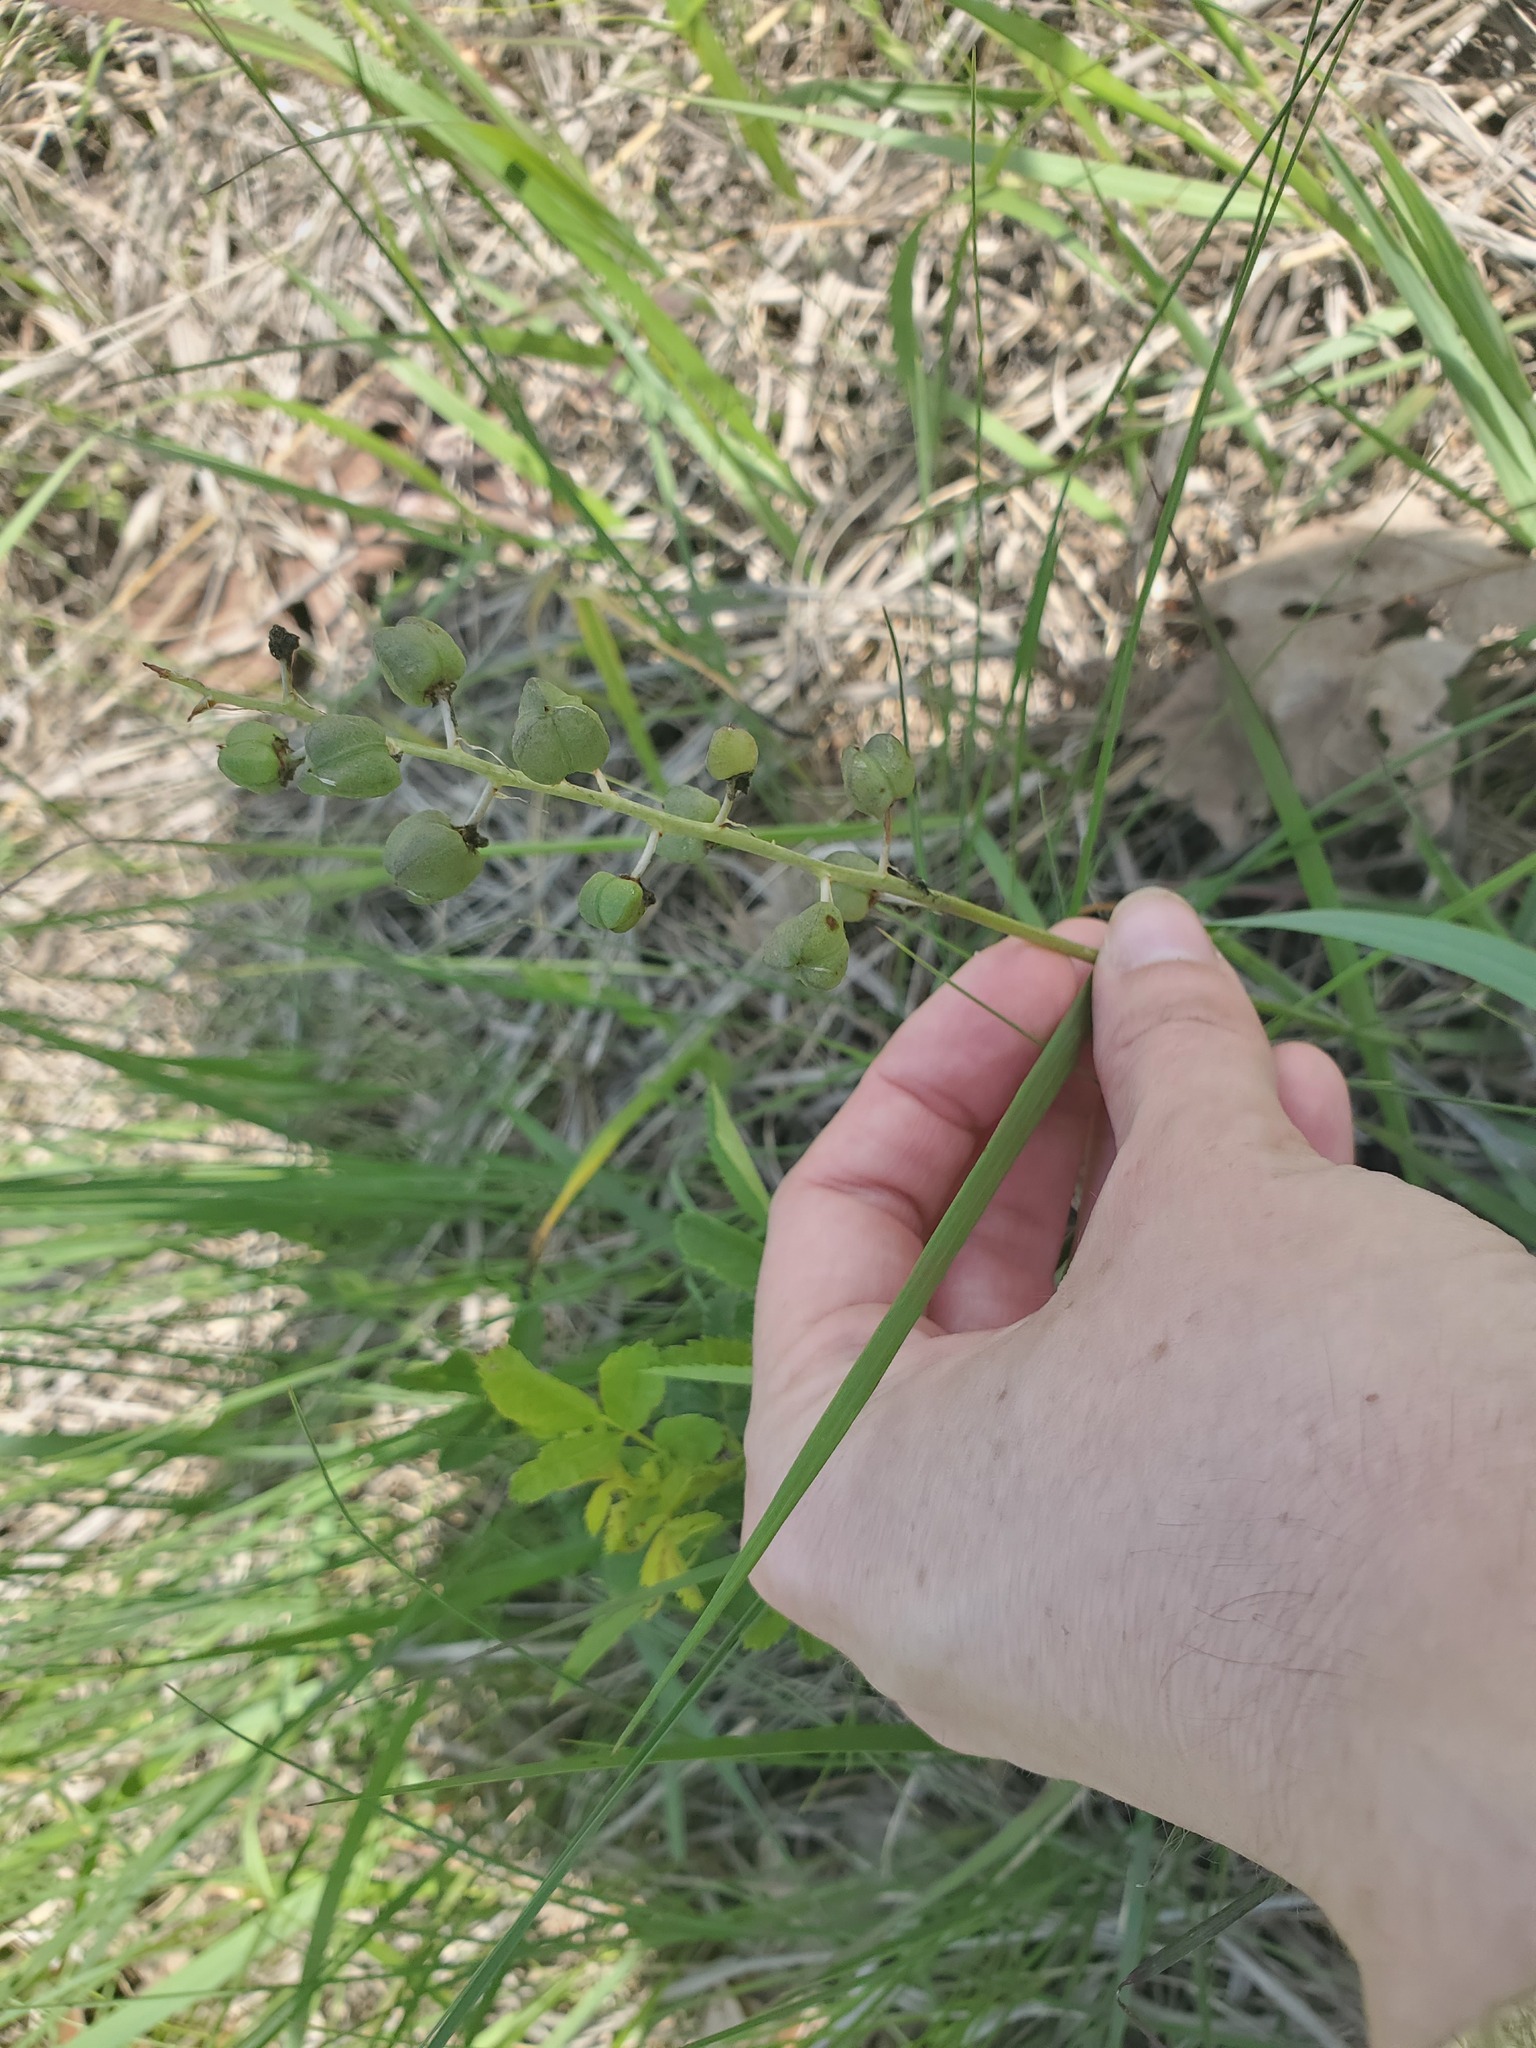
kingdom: Plantae
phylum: Tracheophyta
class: Liliopsida
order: Asparagales
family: Asparagaceae
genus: Camassia
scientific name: Camassia scilloides
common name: Wild hyacinth
